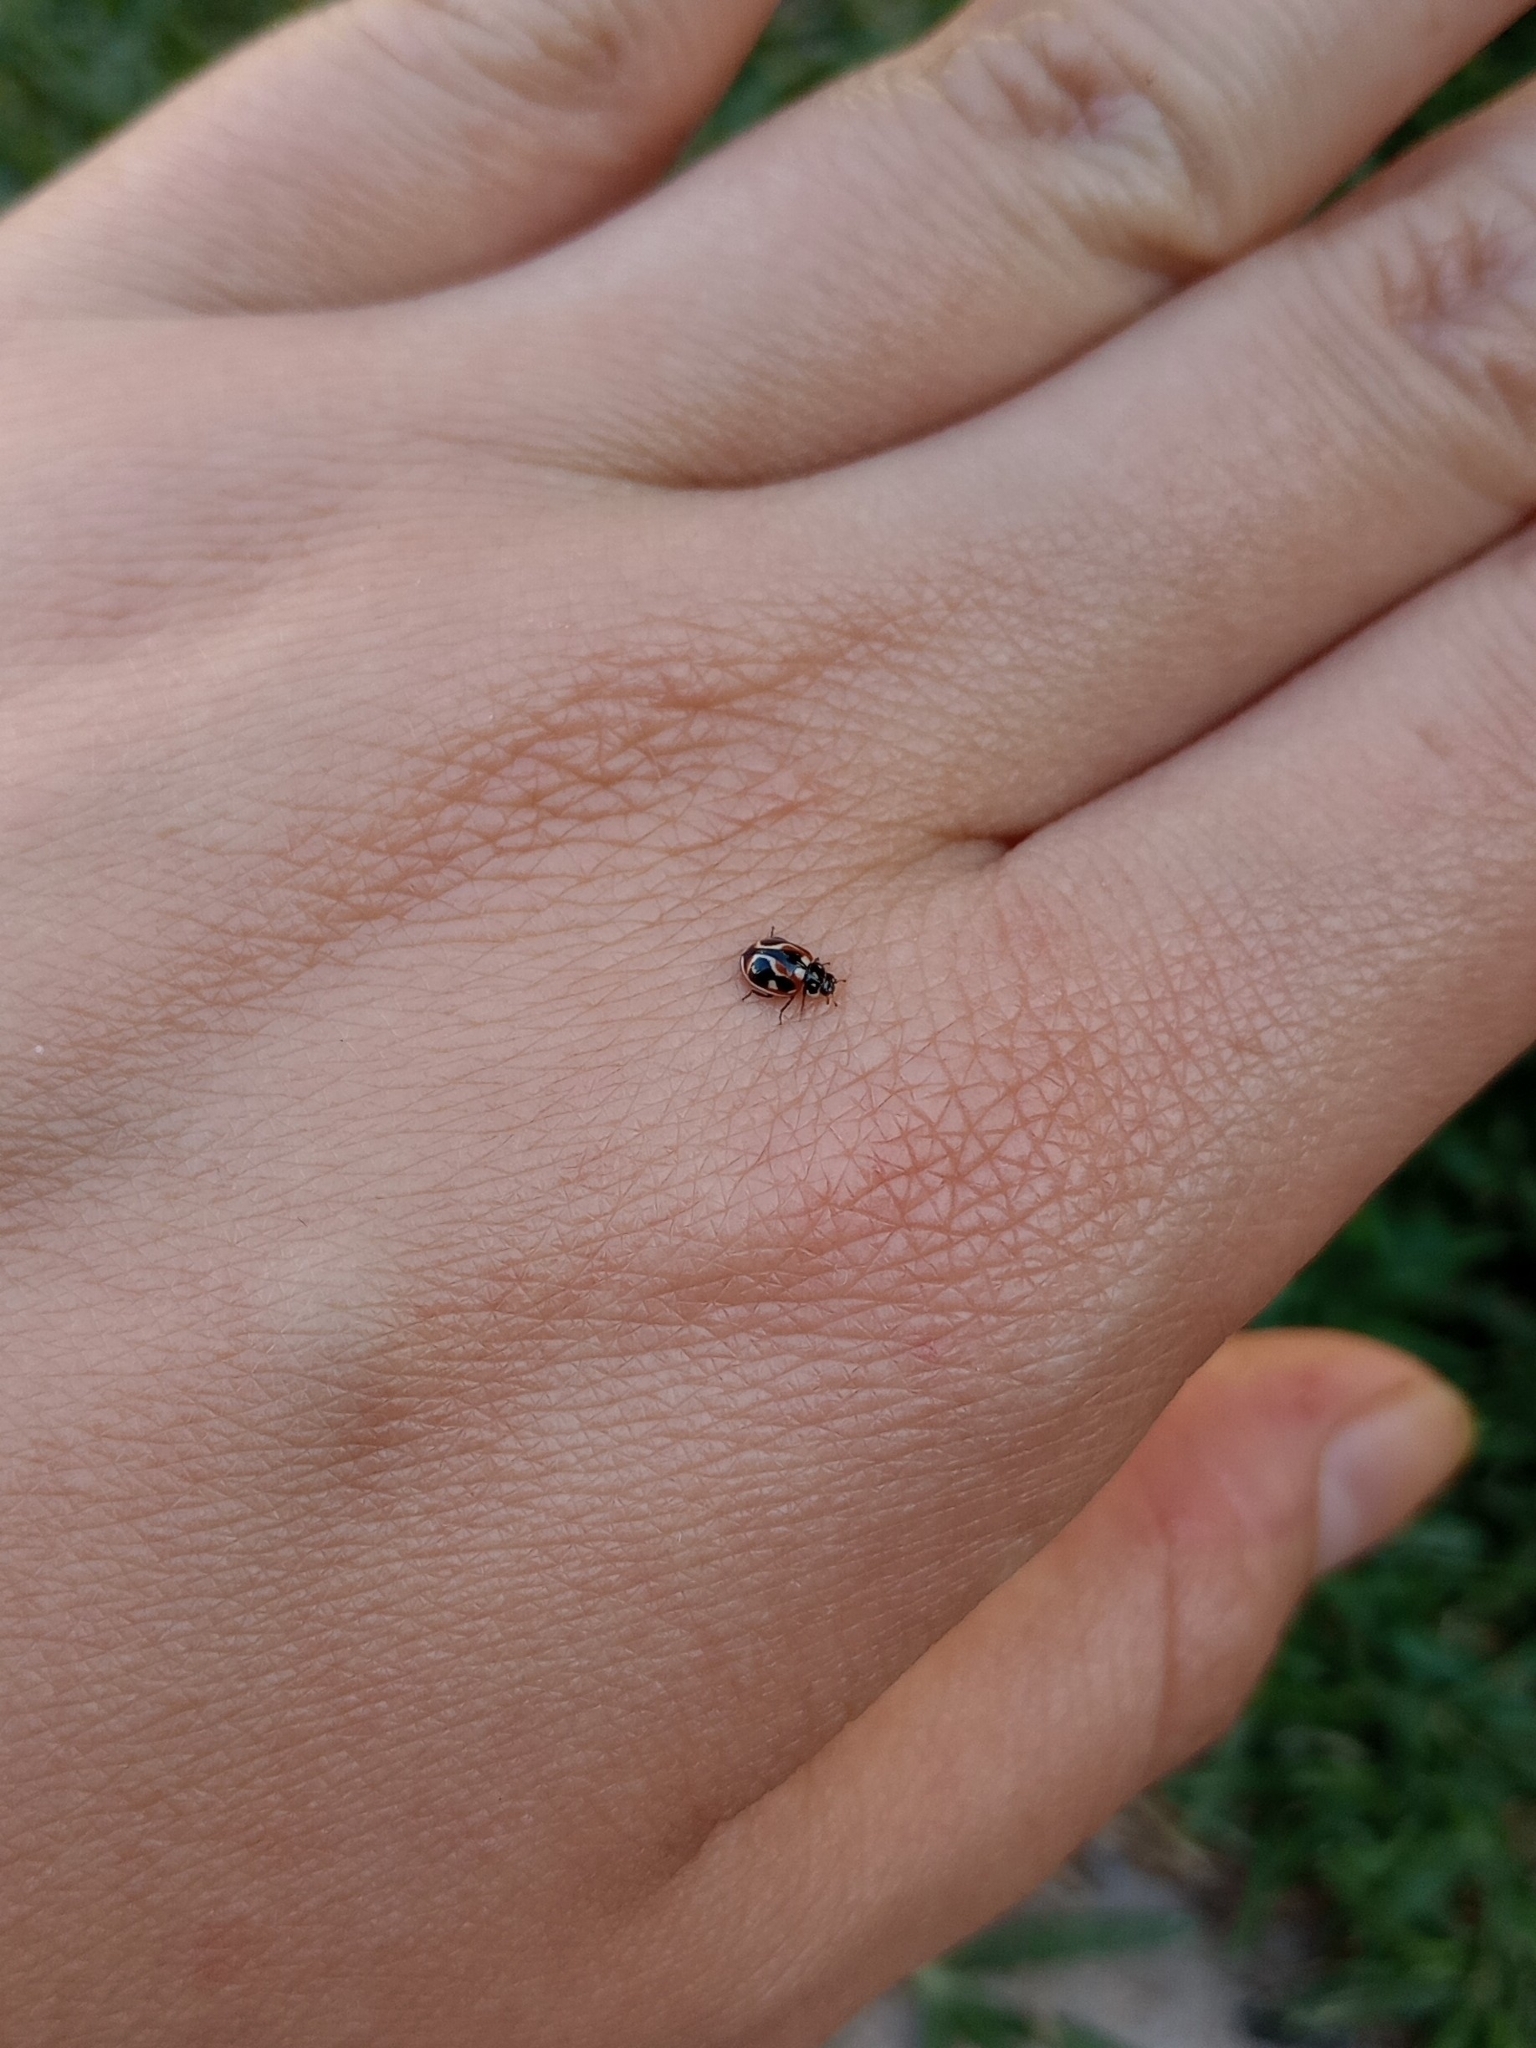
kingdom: Animalia
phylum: Arthropoda
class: Insecta
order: Coleoptera
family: Coccinellidae
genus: Cycloneda
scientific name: Cycloneda ancoralis
